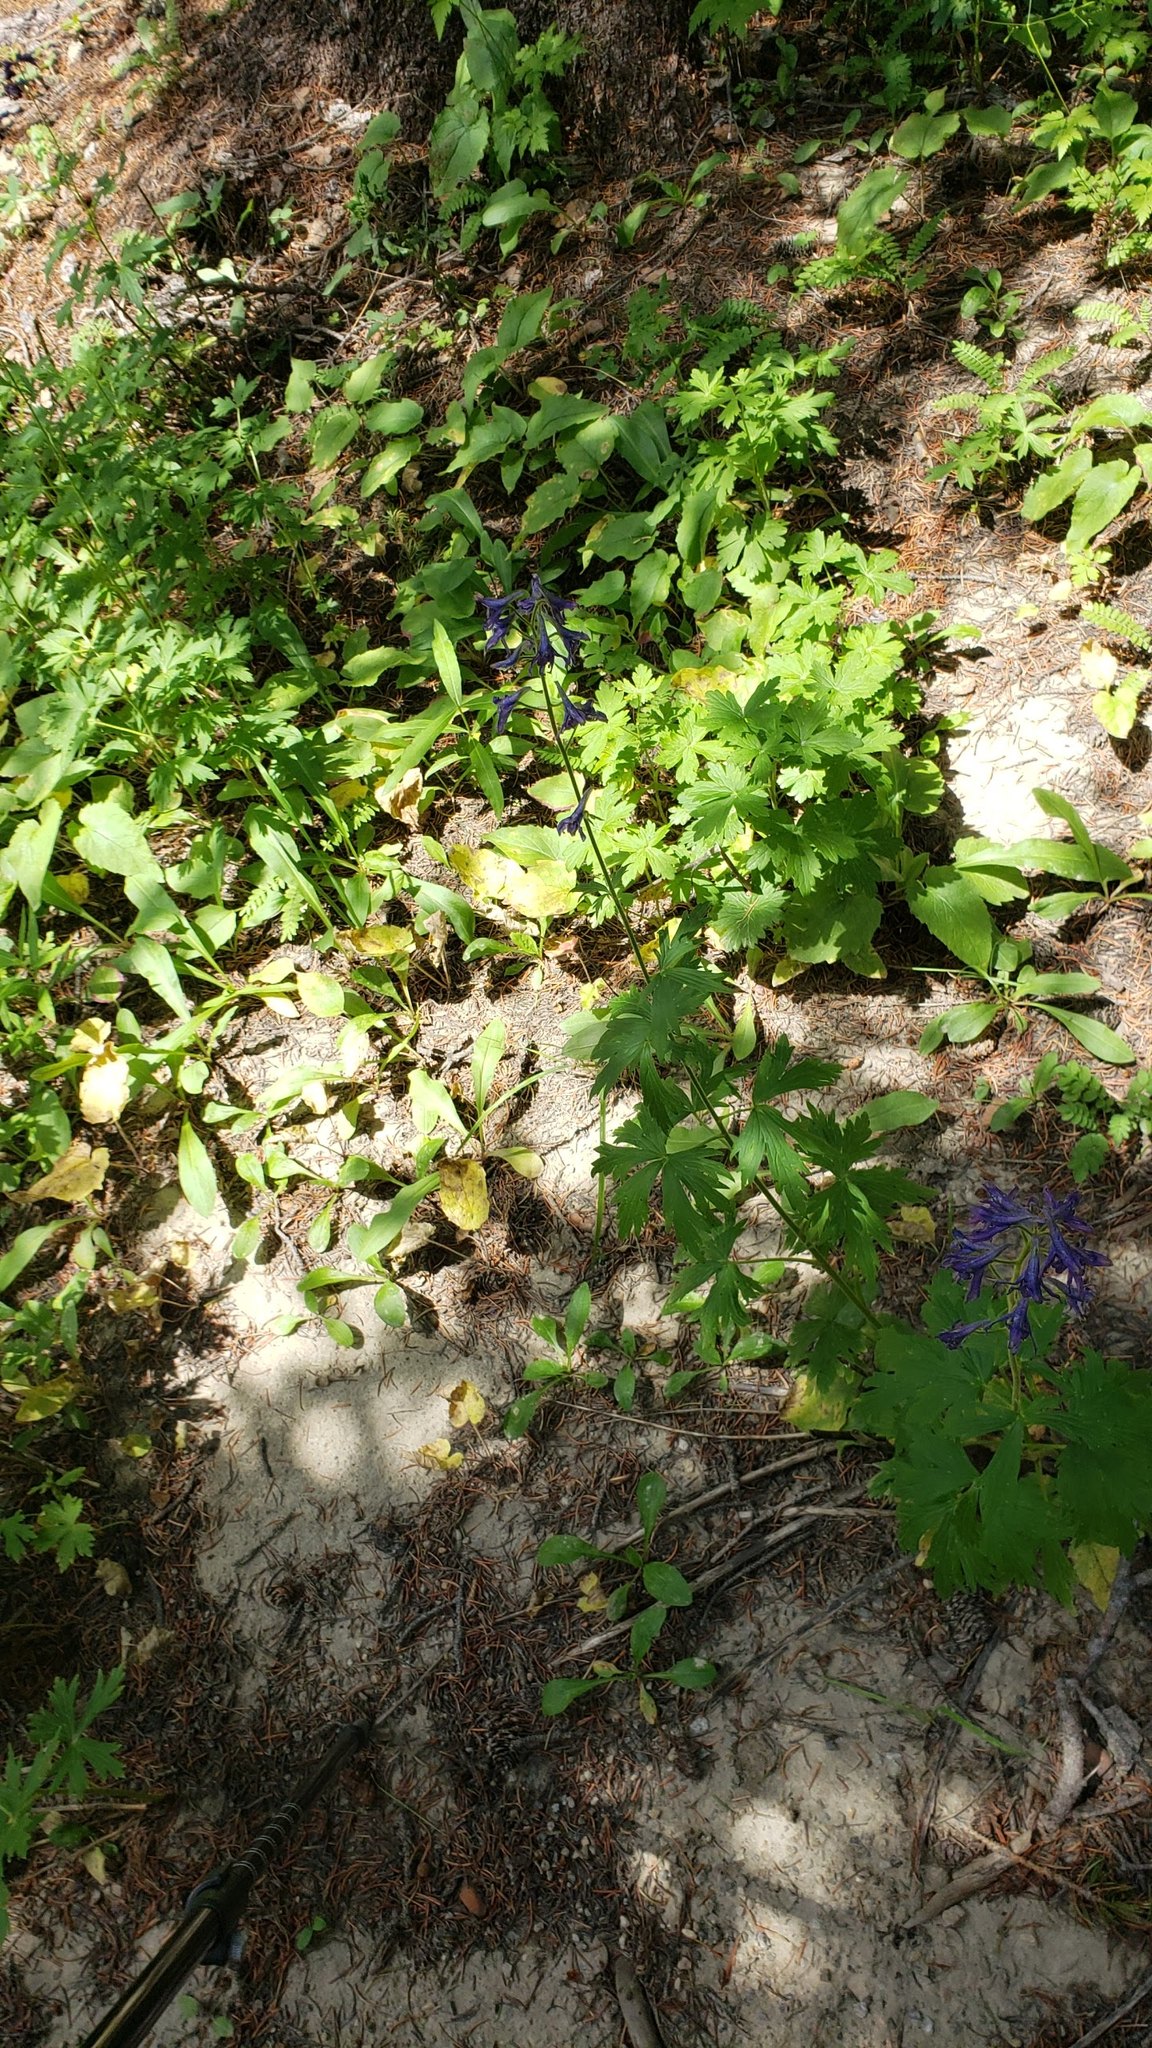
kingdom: Plantae
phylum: Tracheophyta
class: Magnoliopsida
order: Ranunculales
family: Ranunculaceae
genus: Delphinium
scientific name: Delphinium barbeyi
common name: Subalpine larkspur
